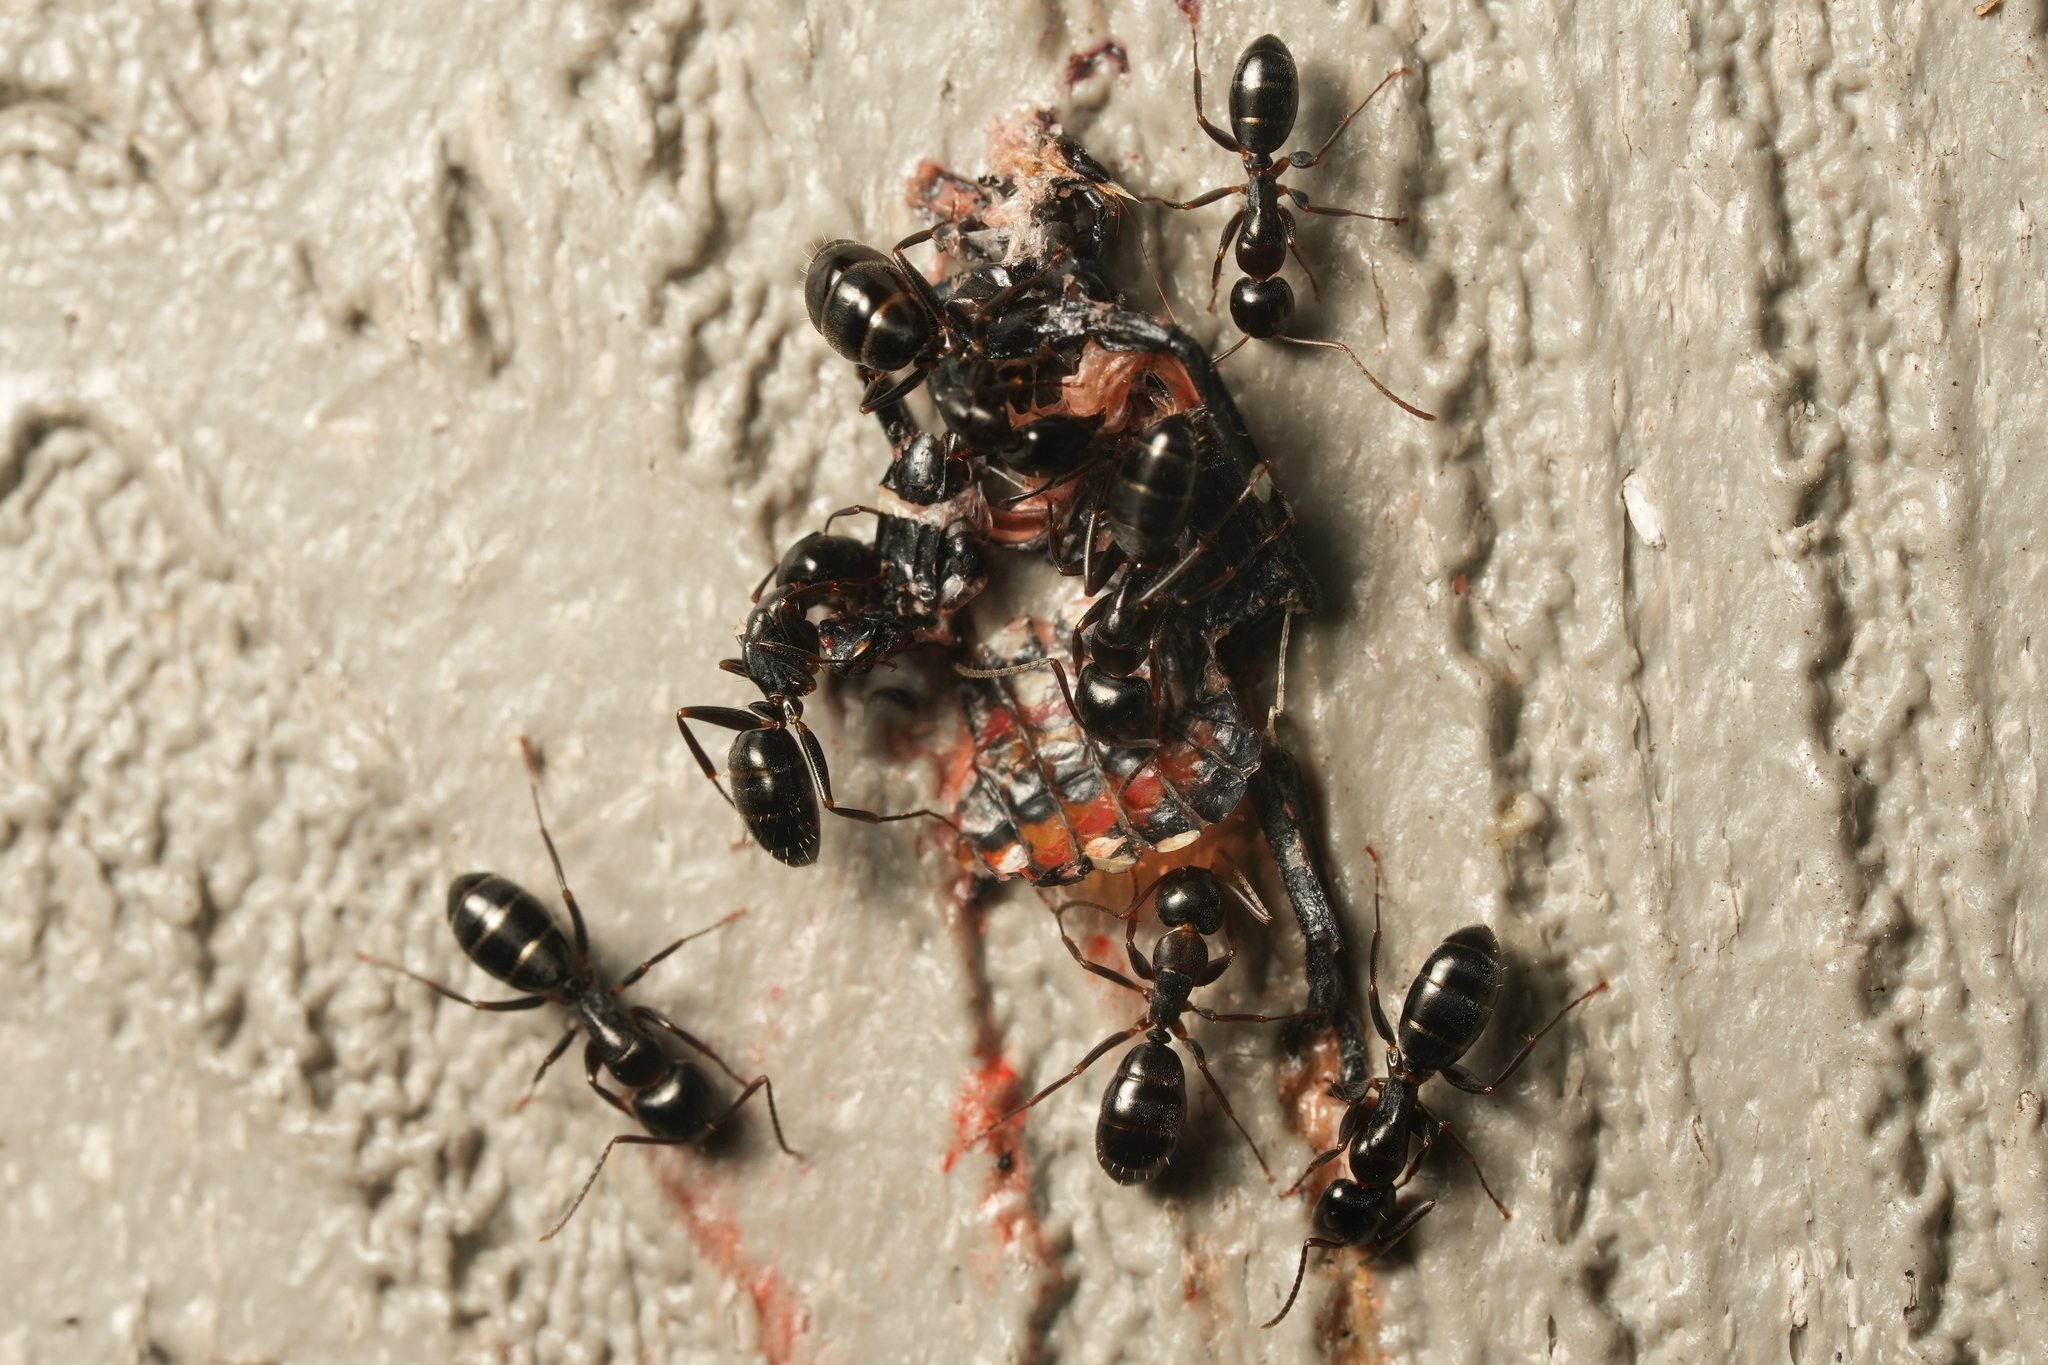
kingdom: Animalia
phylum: Arthropoda
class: Insecta
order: Hymenoptera
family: Formicidae
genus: Camponotus
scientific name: Camponotus nearcticus
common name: Smaller carpenter ant
